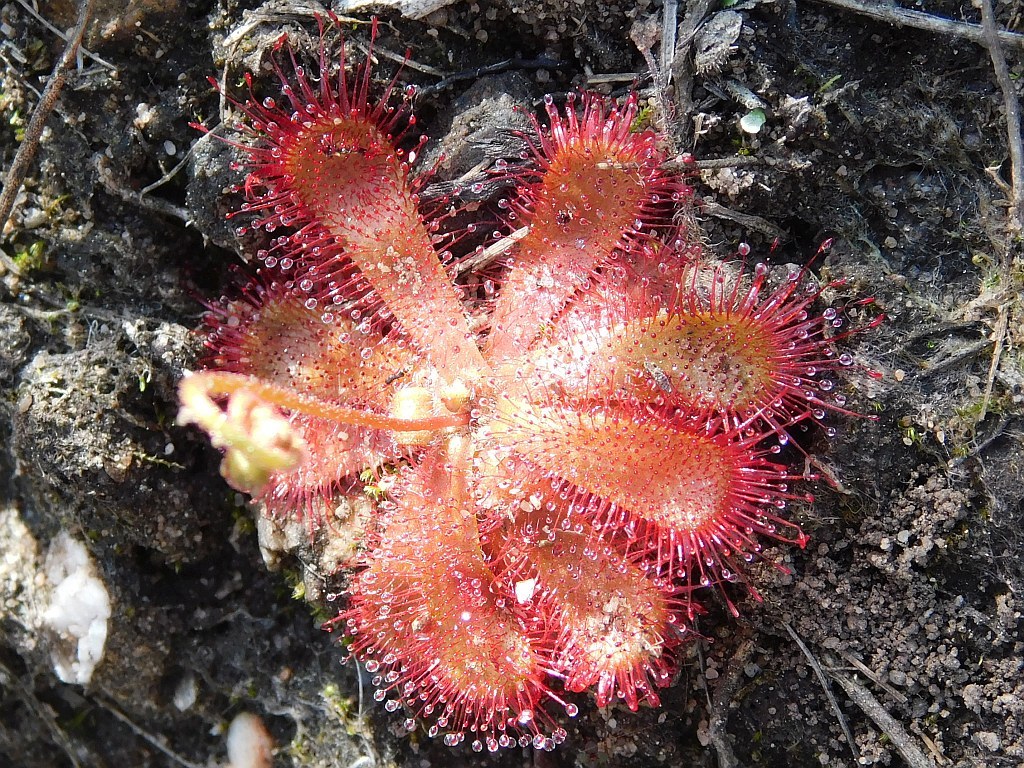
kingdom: Plantae
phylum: Tracheophyta
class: Magnoliopsida
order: Caryophyllales
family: Droseraceae
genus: Drosera
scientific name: Drosera trinervia
